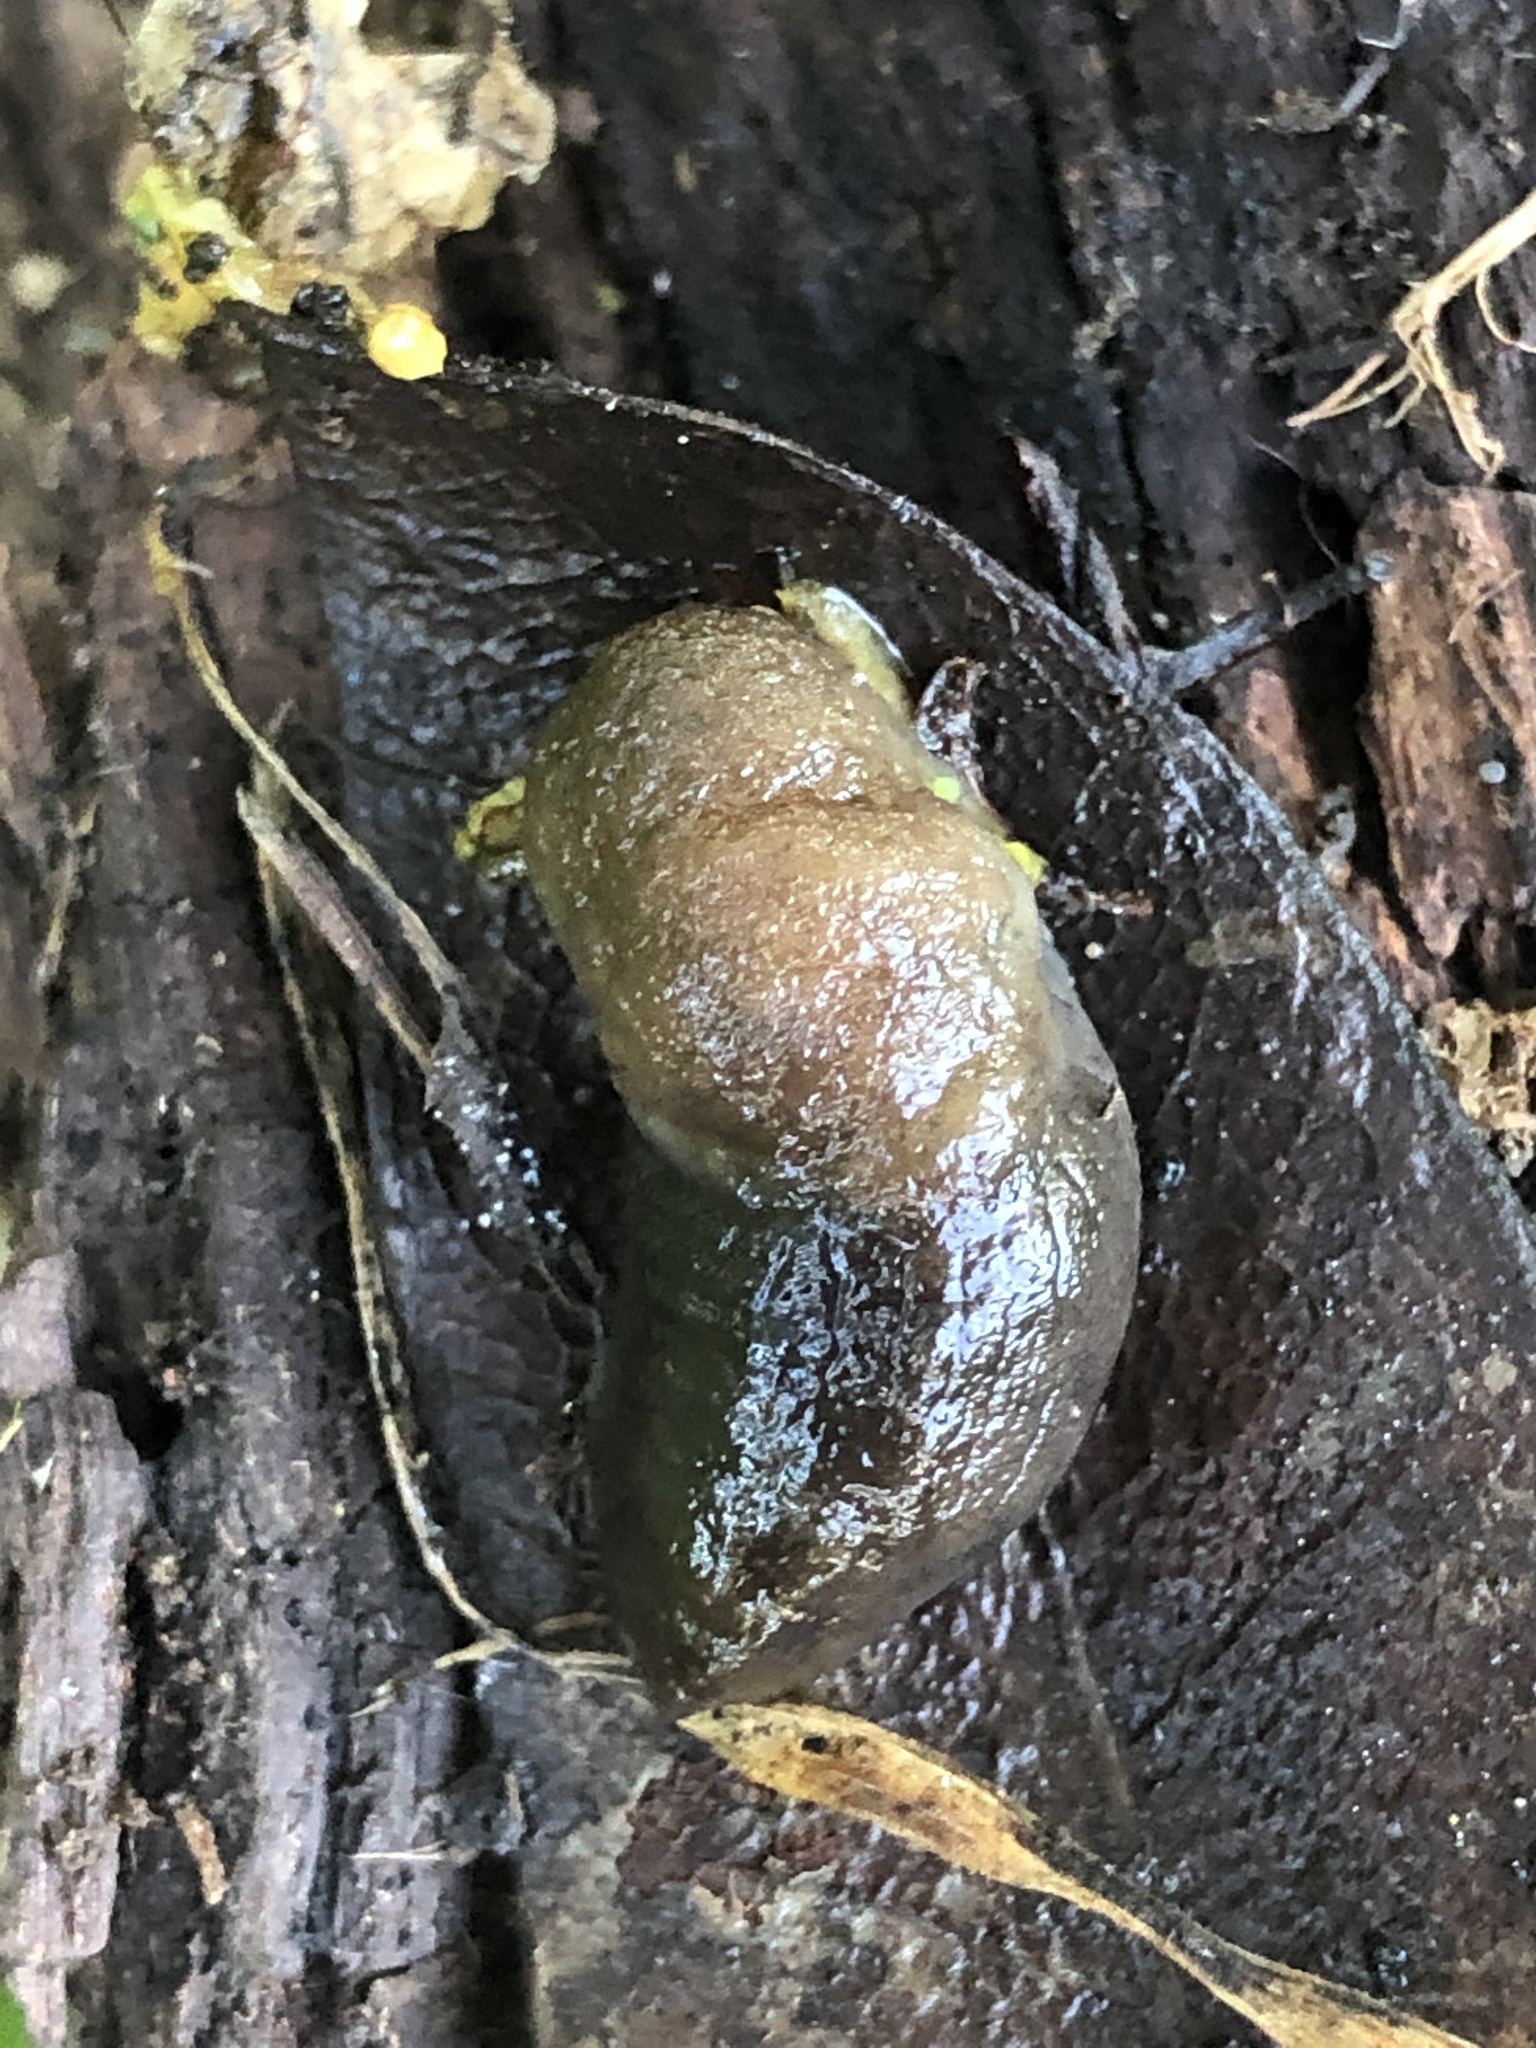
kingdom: Animalia
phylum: Mollusca
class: Gastropoda
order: Stylommatophora
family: Milacidae
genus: Milax
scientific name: Milax gagates
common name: Greenhouse slug
